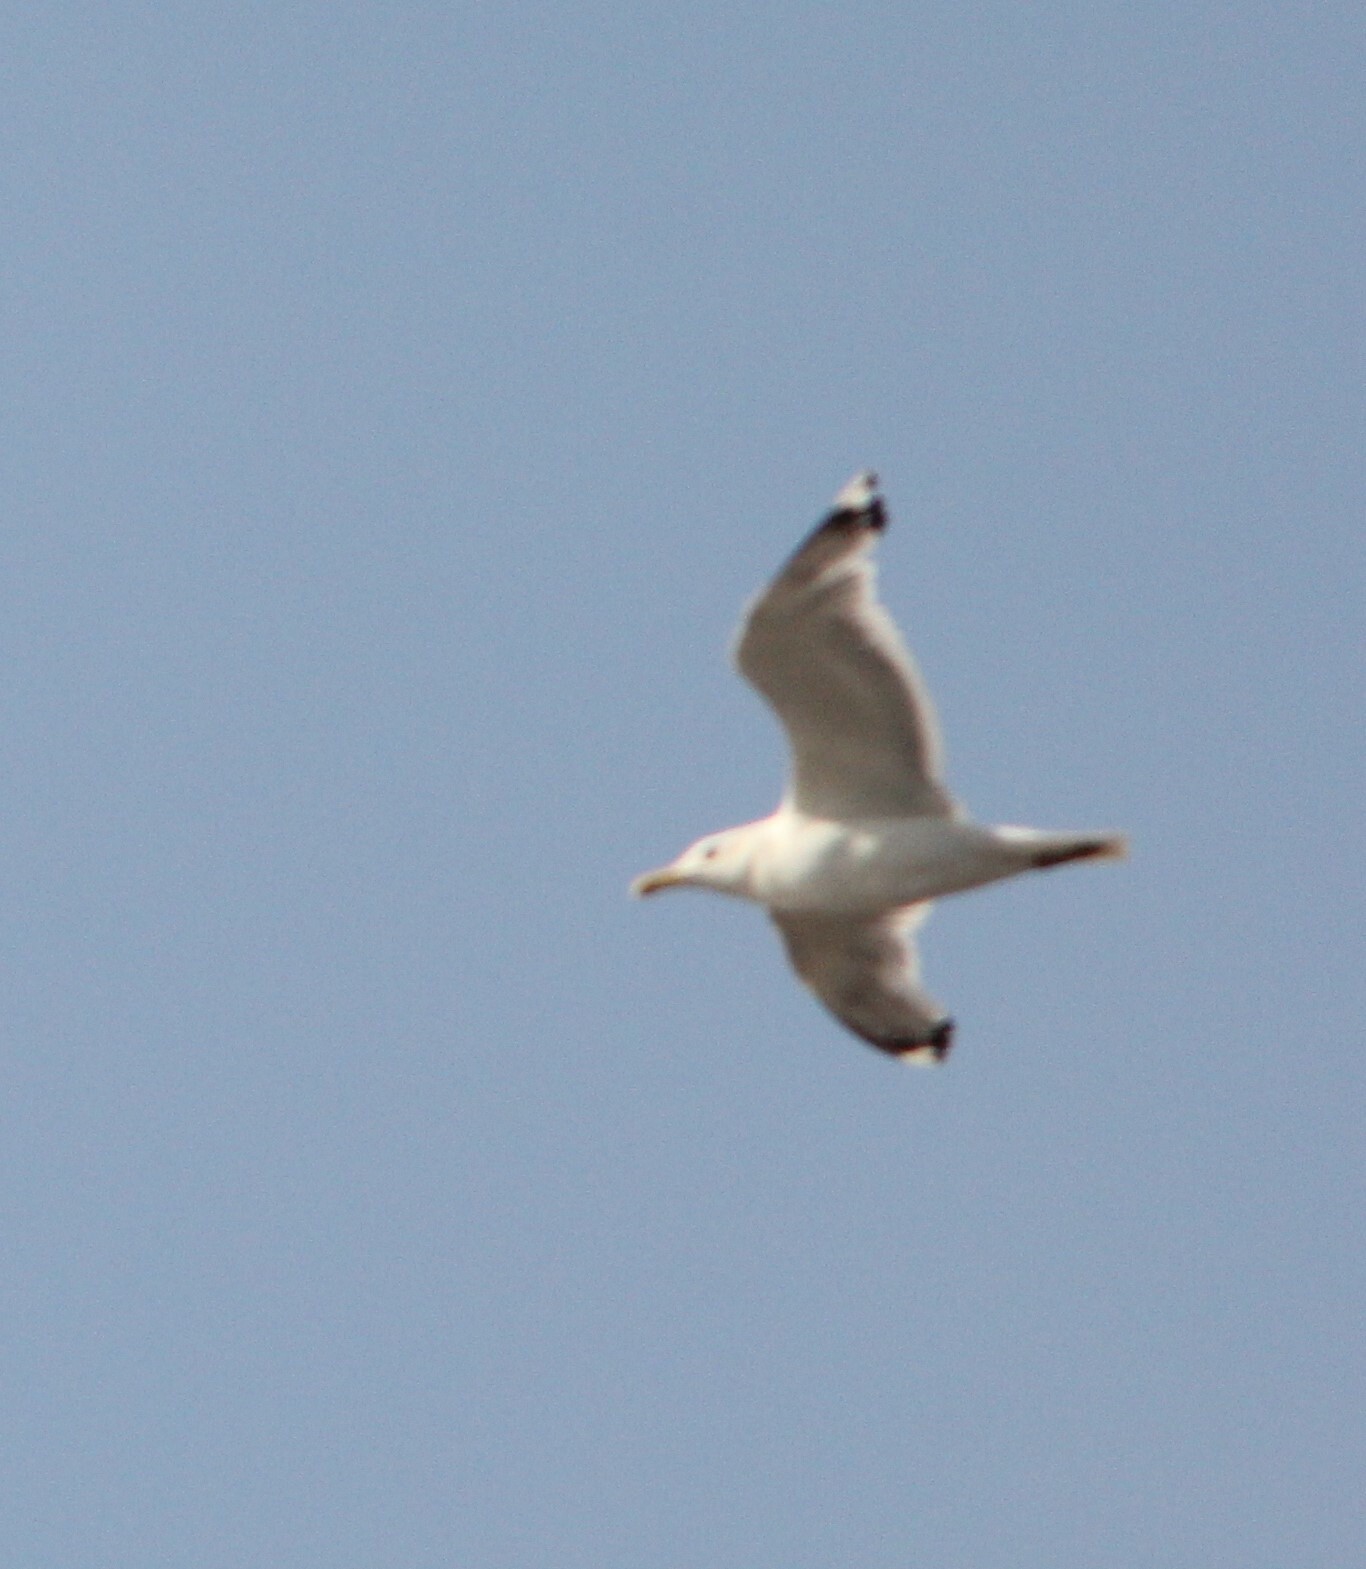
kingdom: Animalia
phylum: Chordata
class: Aves
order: Charadriiformes
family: Laridae
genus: Larus
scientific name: Larus
